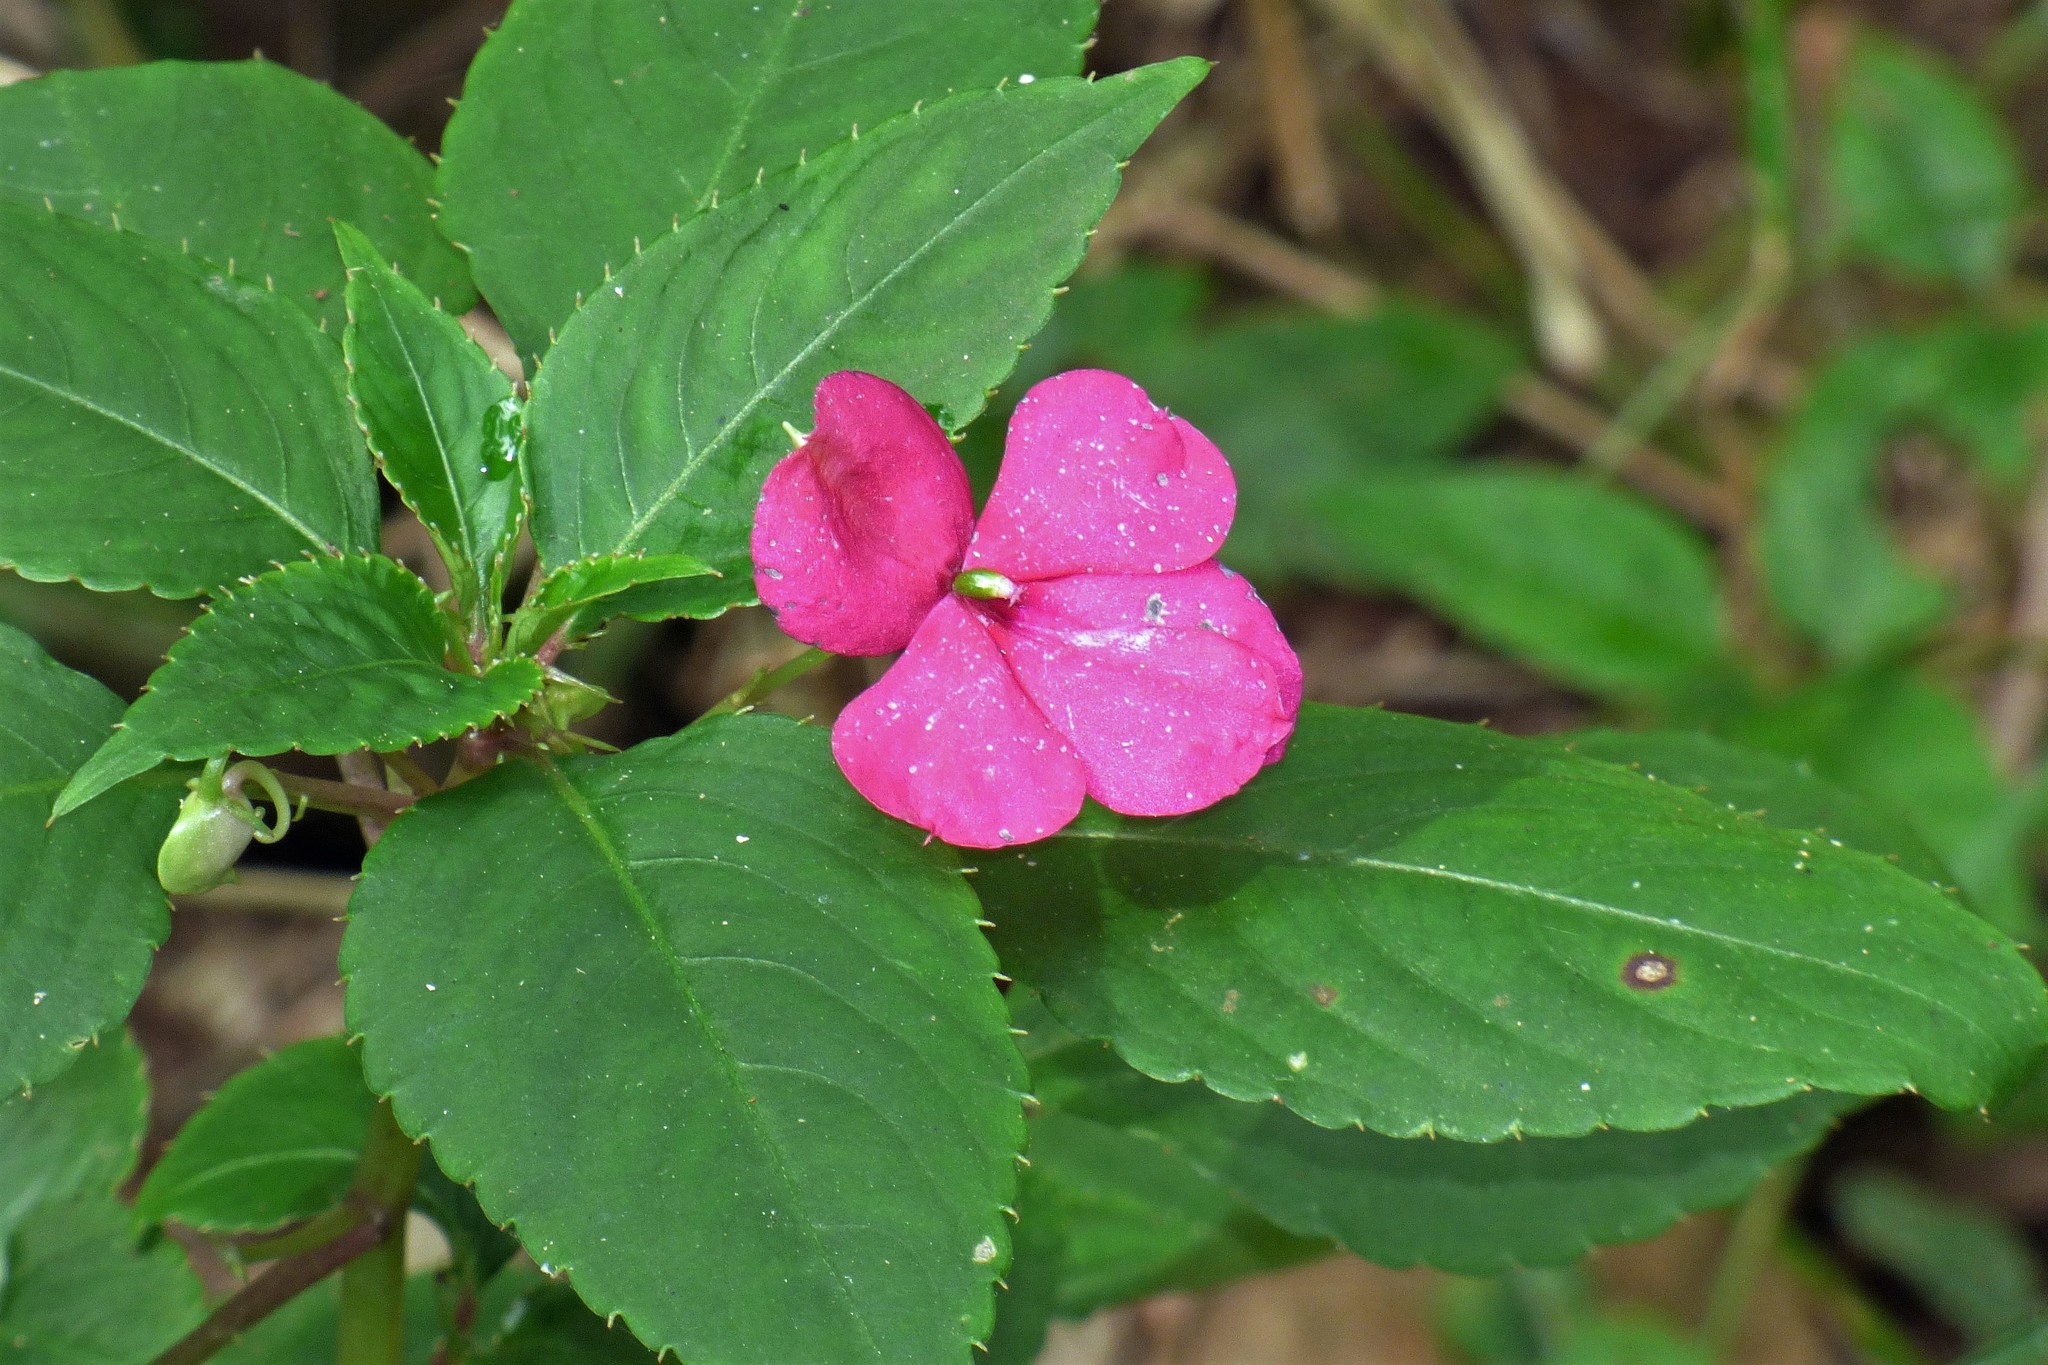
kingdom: Plantae
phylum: Tracheophyta
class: Magnoliopsida
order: Ericales
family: Balsaminaceae
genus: Impatiens
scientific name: Impatiens walleriana
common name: Buzzy lizzy
